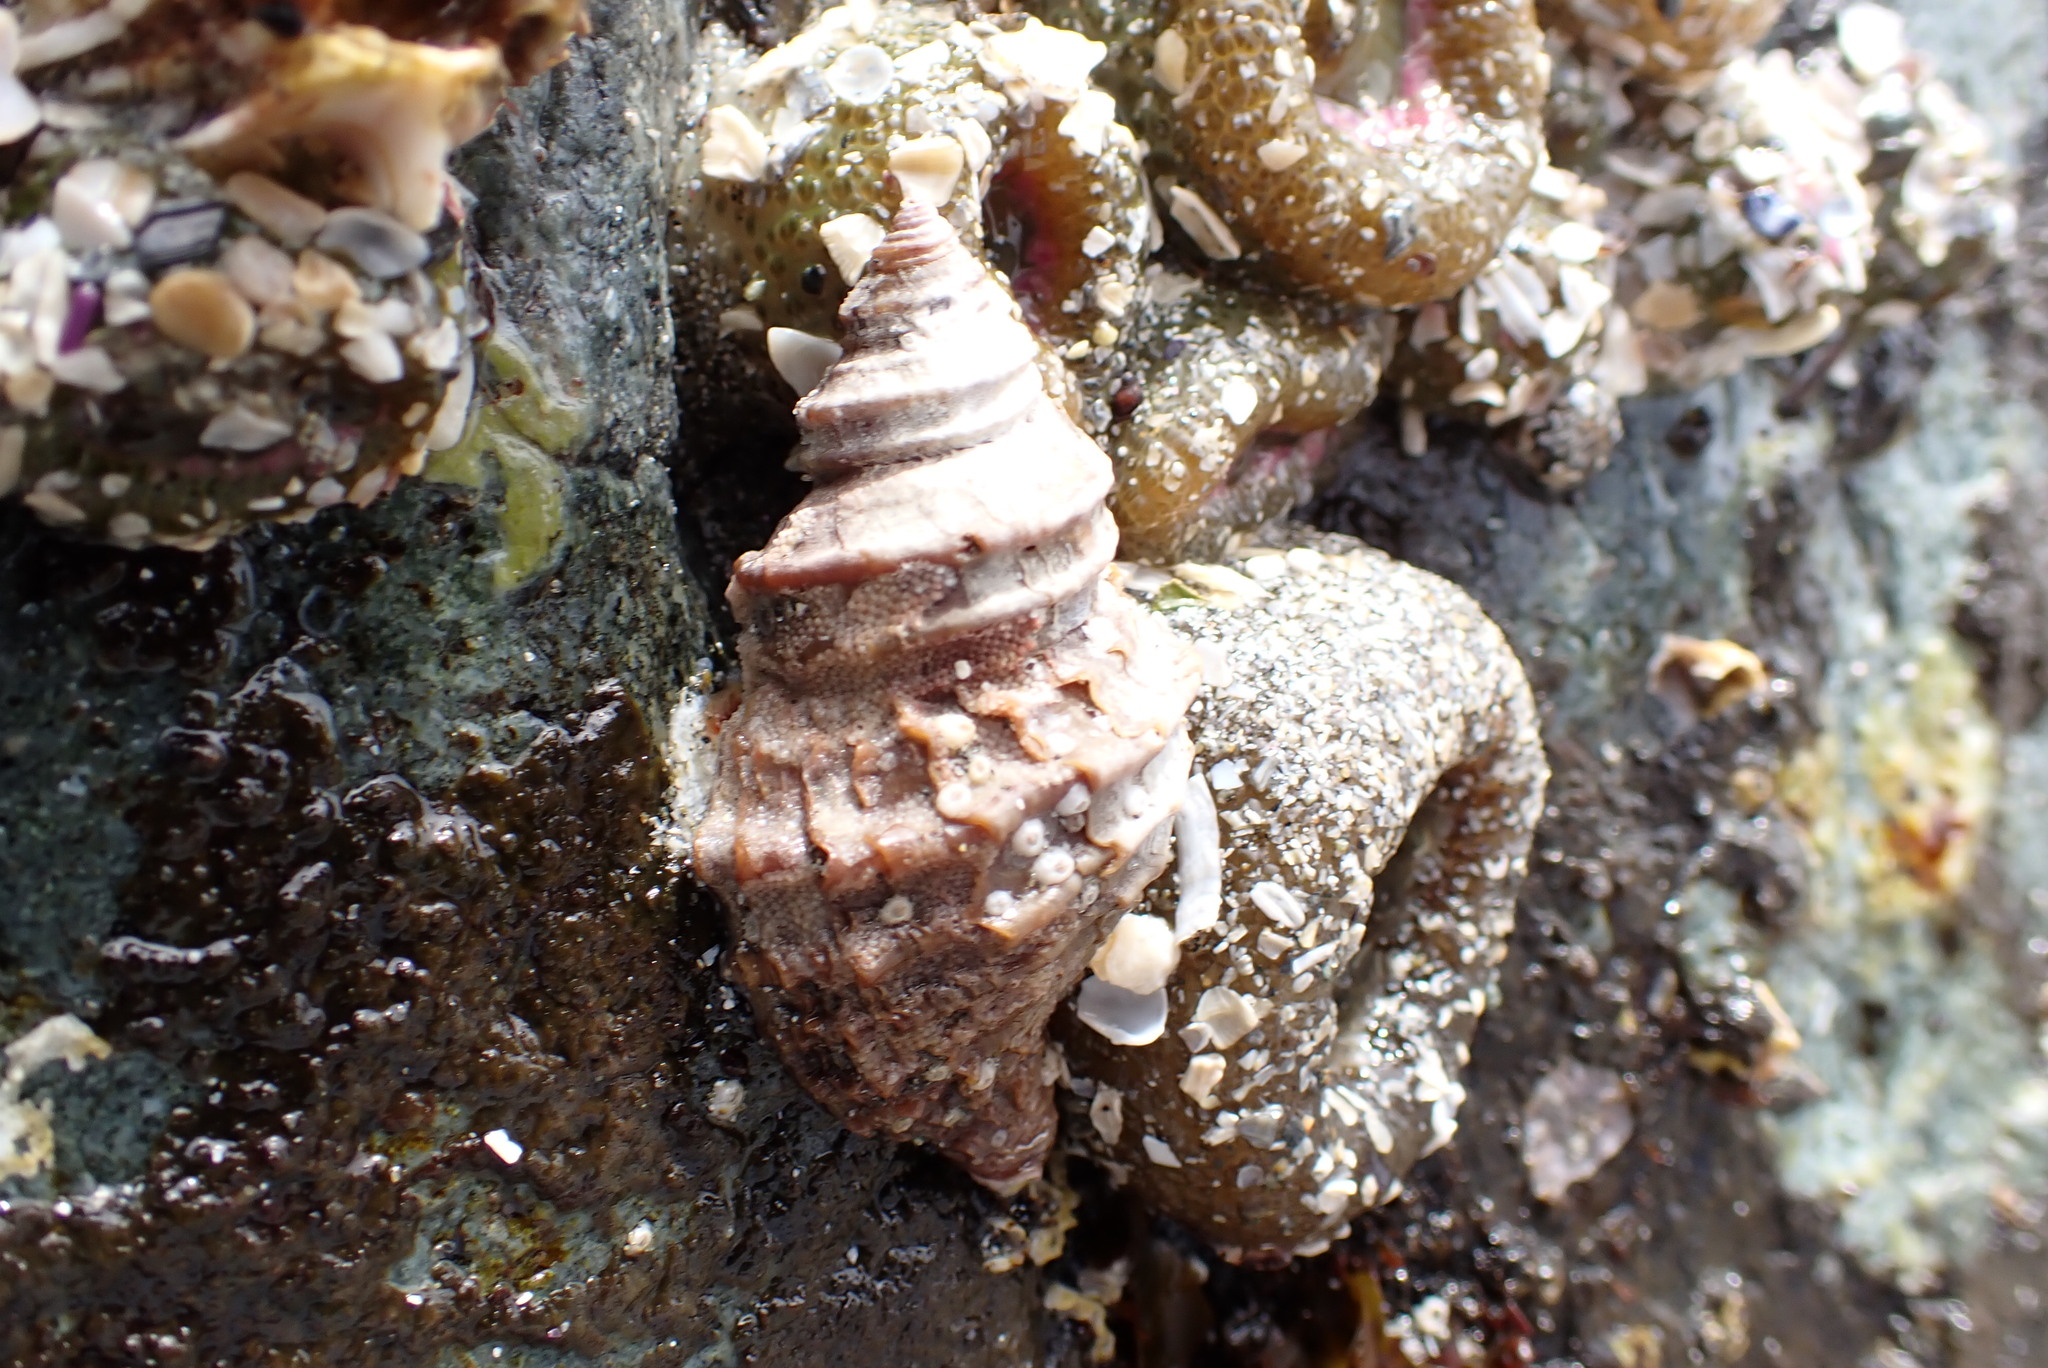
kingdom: Animalia
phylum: Mollusca
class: Gastropoda
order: Neogastropoda
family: Muricidae
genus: Nucella
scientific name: Nucella lamellosa
